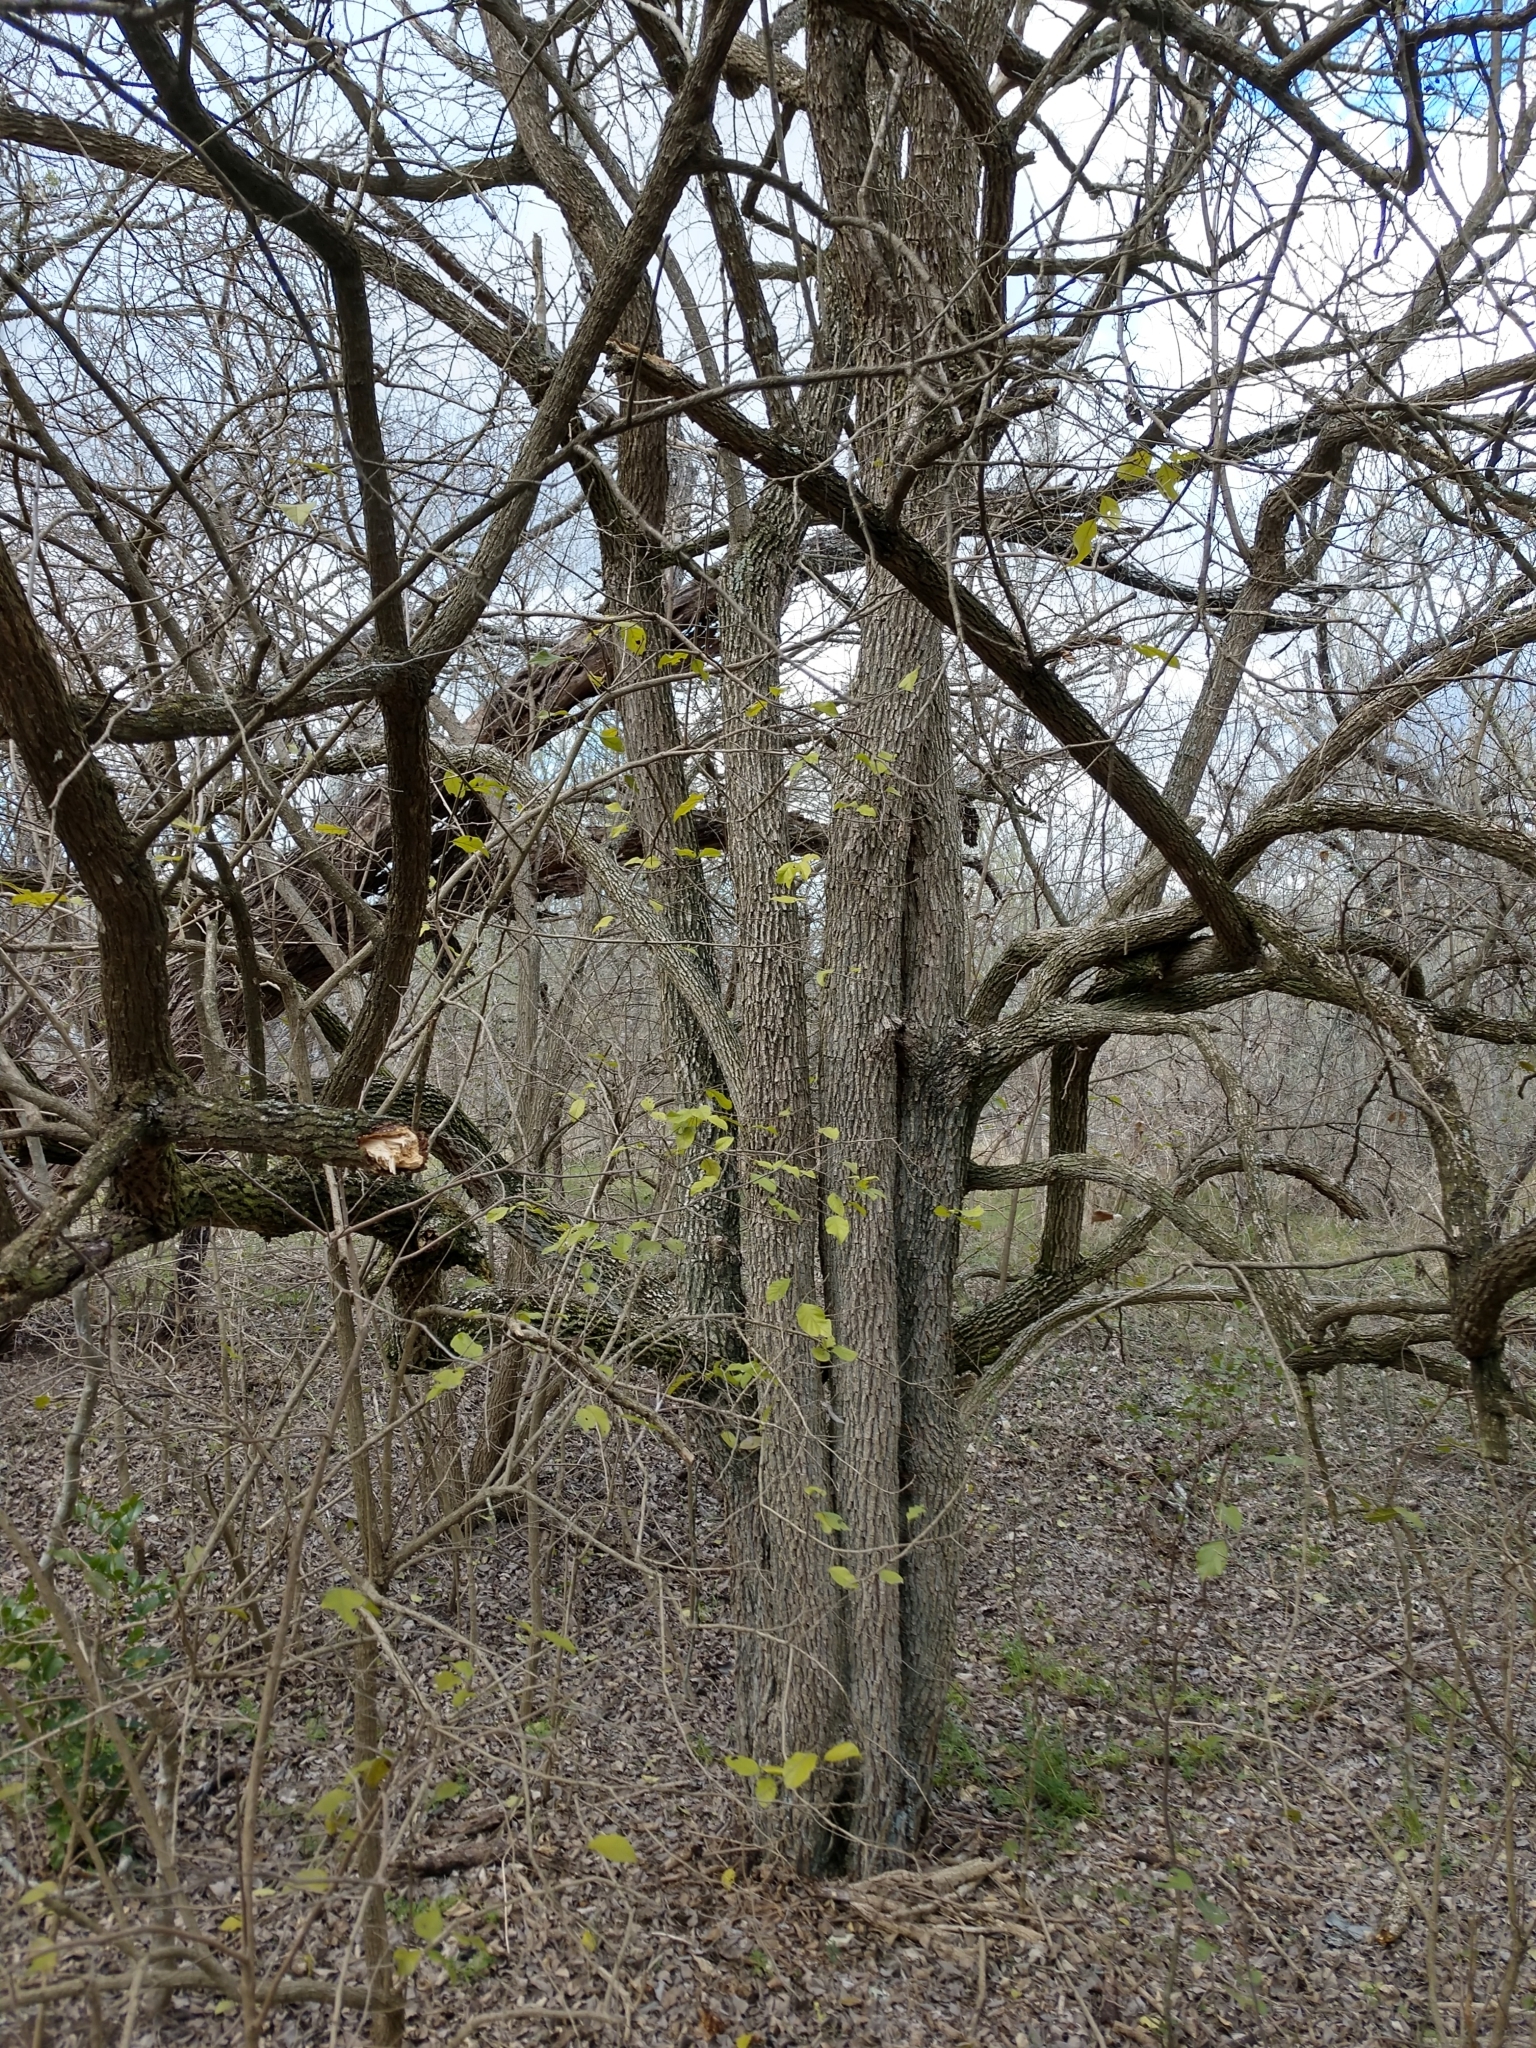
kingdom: Plantae
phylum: Tracheophyta
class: Magnoliopsida
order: Boraginales
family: Ehretiaceae
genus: Ehretia
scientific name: Ehretia anacua
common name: Sugarberry
